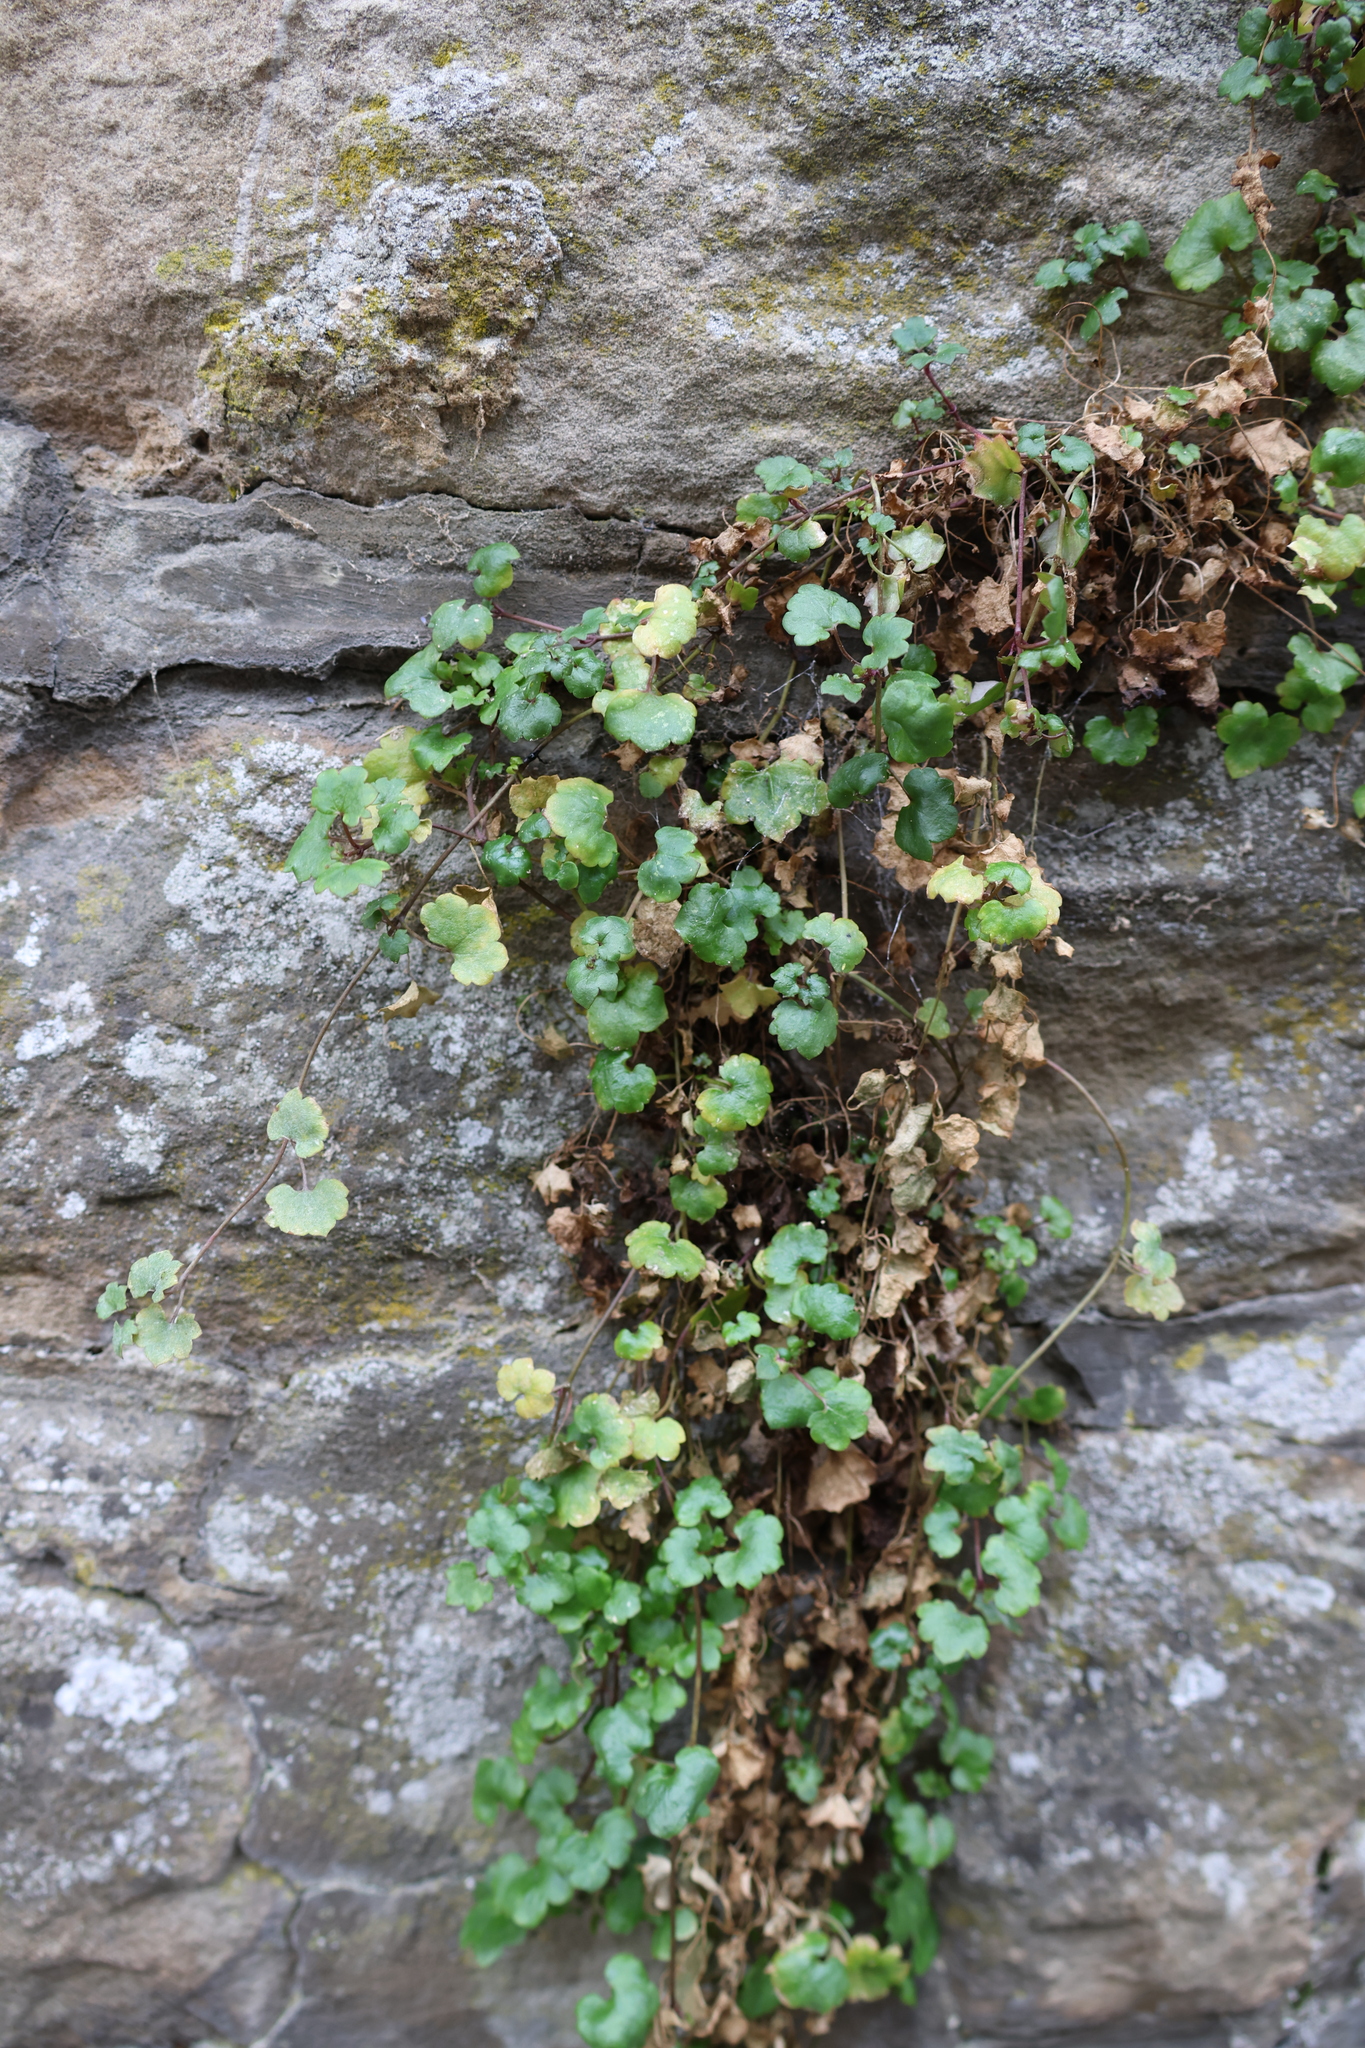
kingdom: Plantae
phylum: Tracheophyta
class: Magnoliopsida
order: Lamiales
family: Plantaginaceae
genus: Cymbalaria
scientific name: Cymbalaria muralis
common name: Ivy-leaved toadflax
